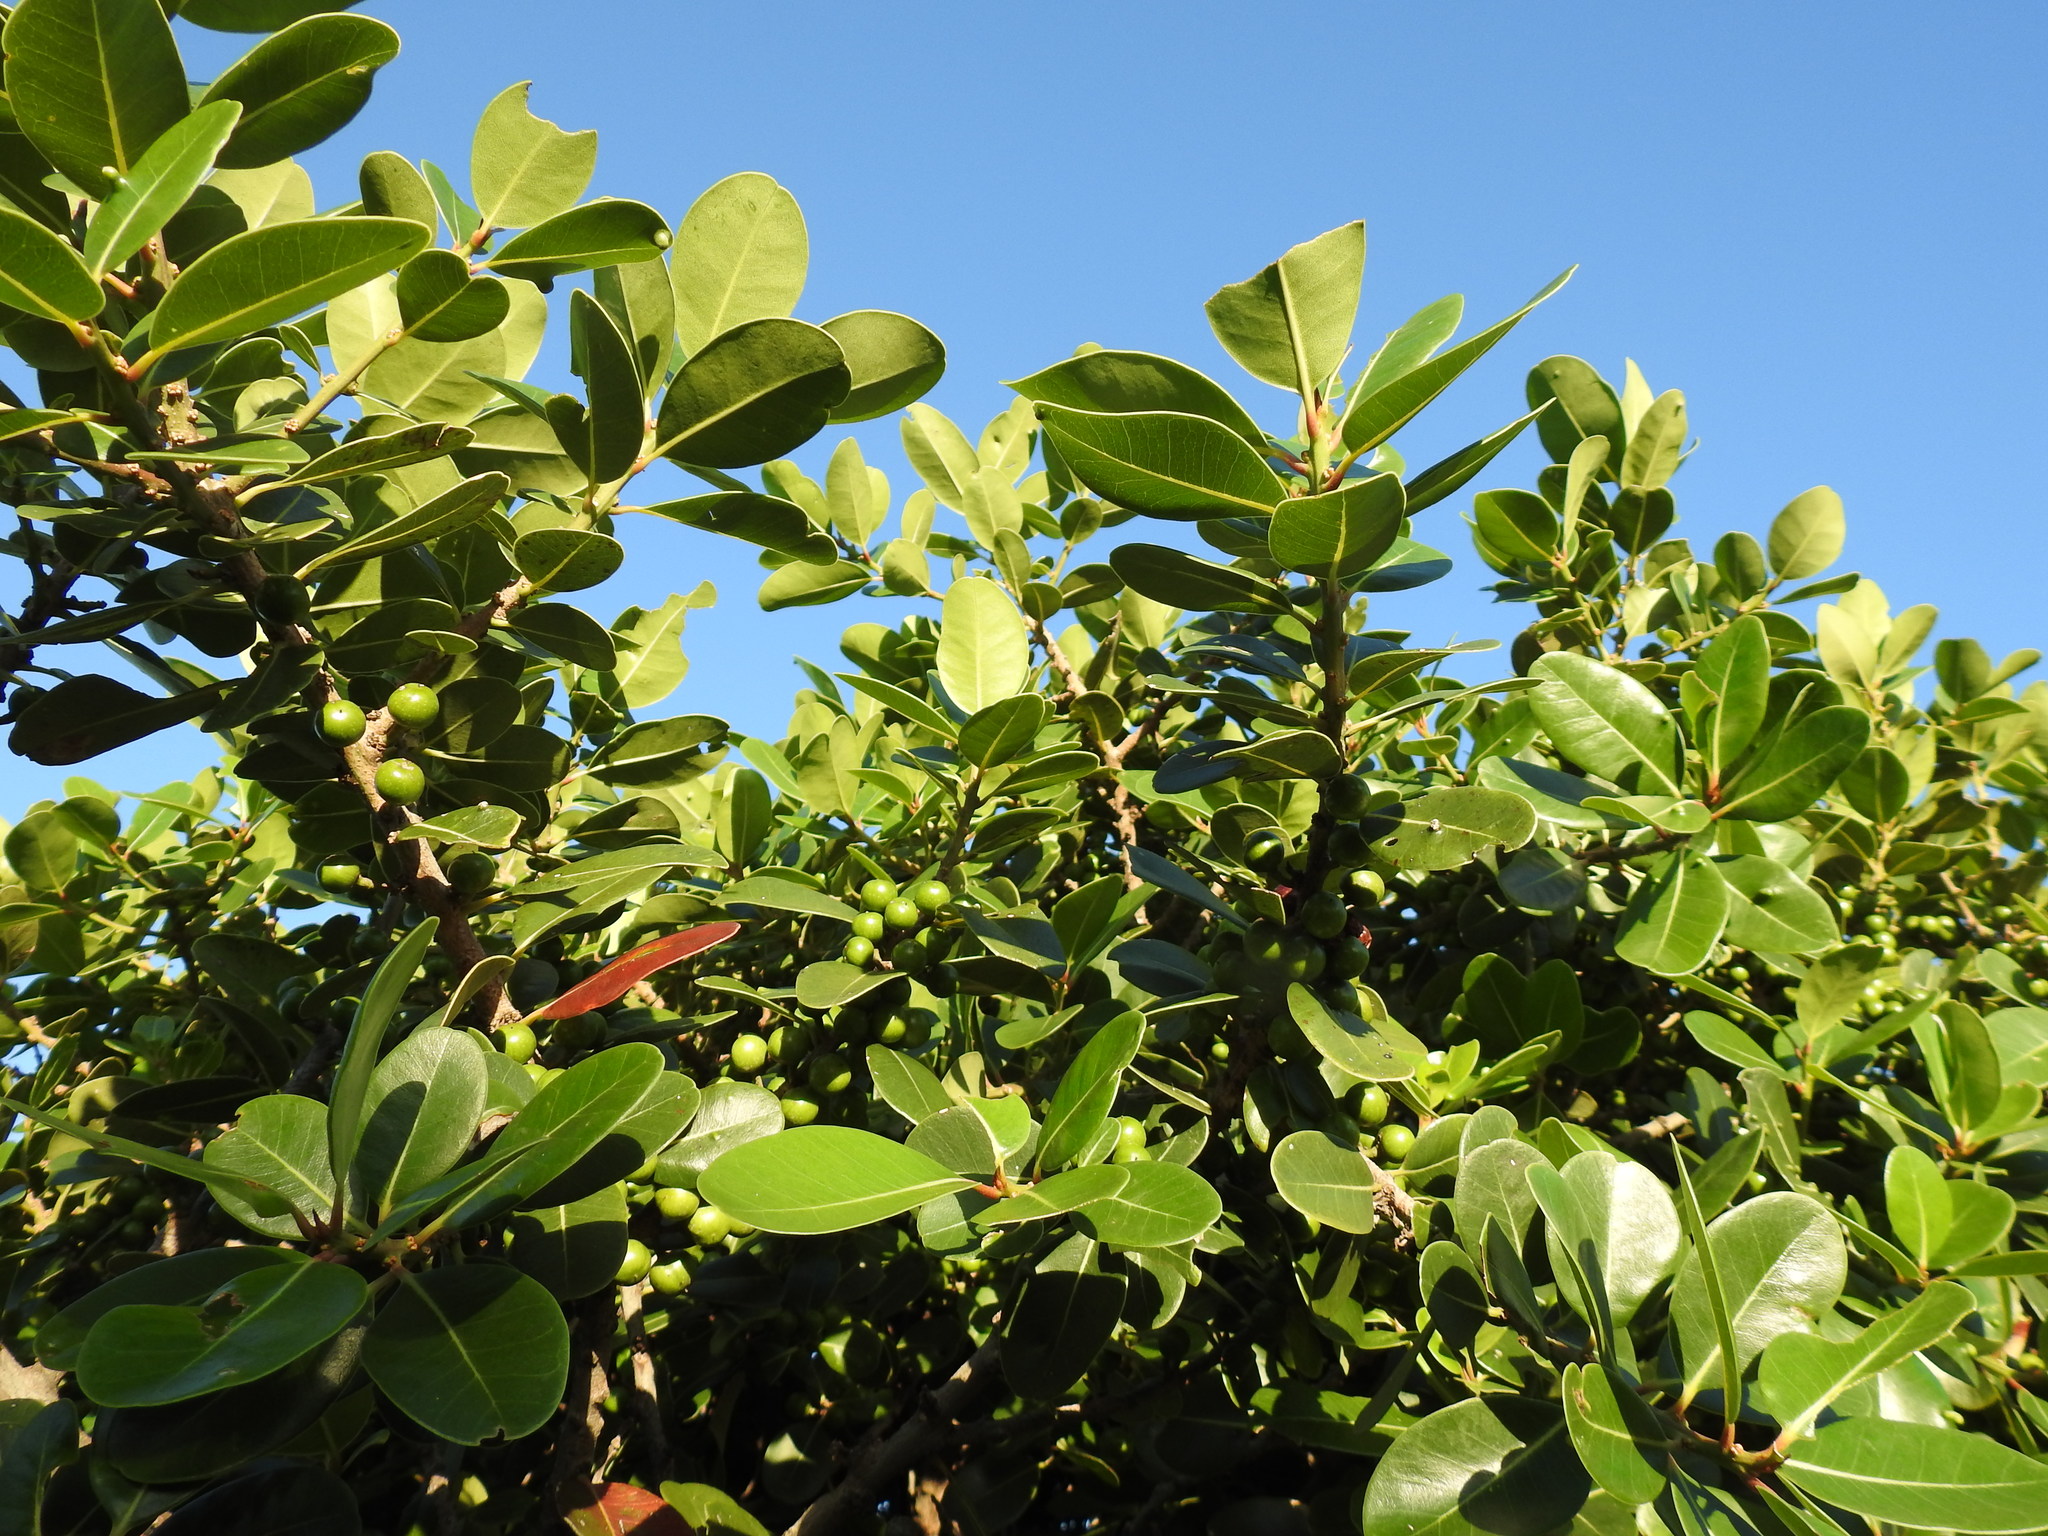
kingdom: Plantae
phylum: Tracheophyta
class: Magnoliopsida
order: Ericales
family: Sapotaceae
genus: Sideroxylon
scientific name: Sideroxylon inerme
